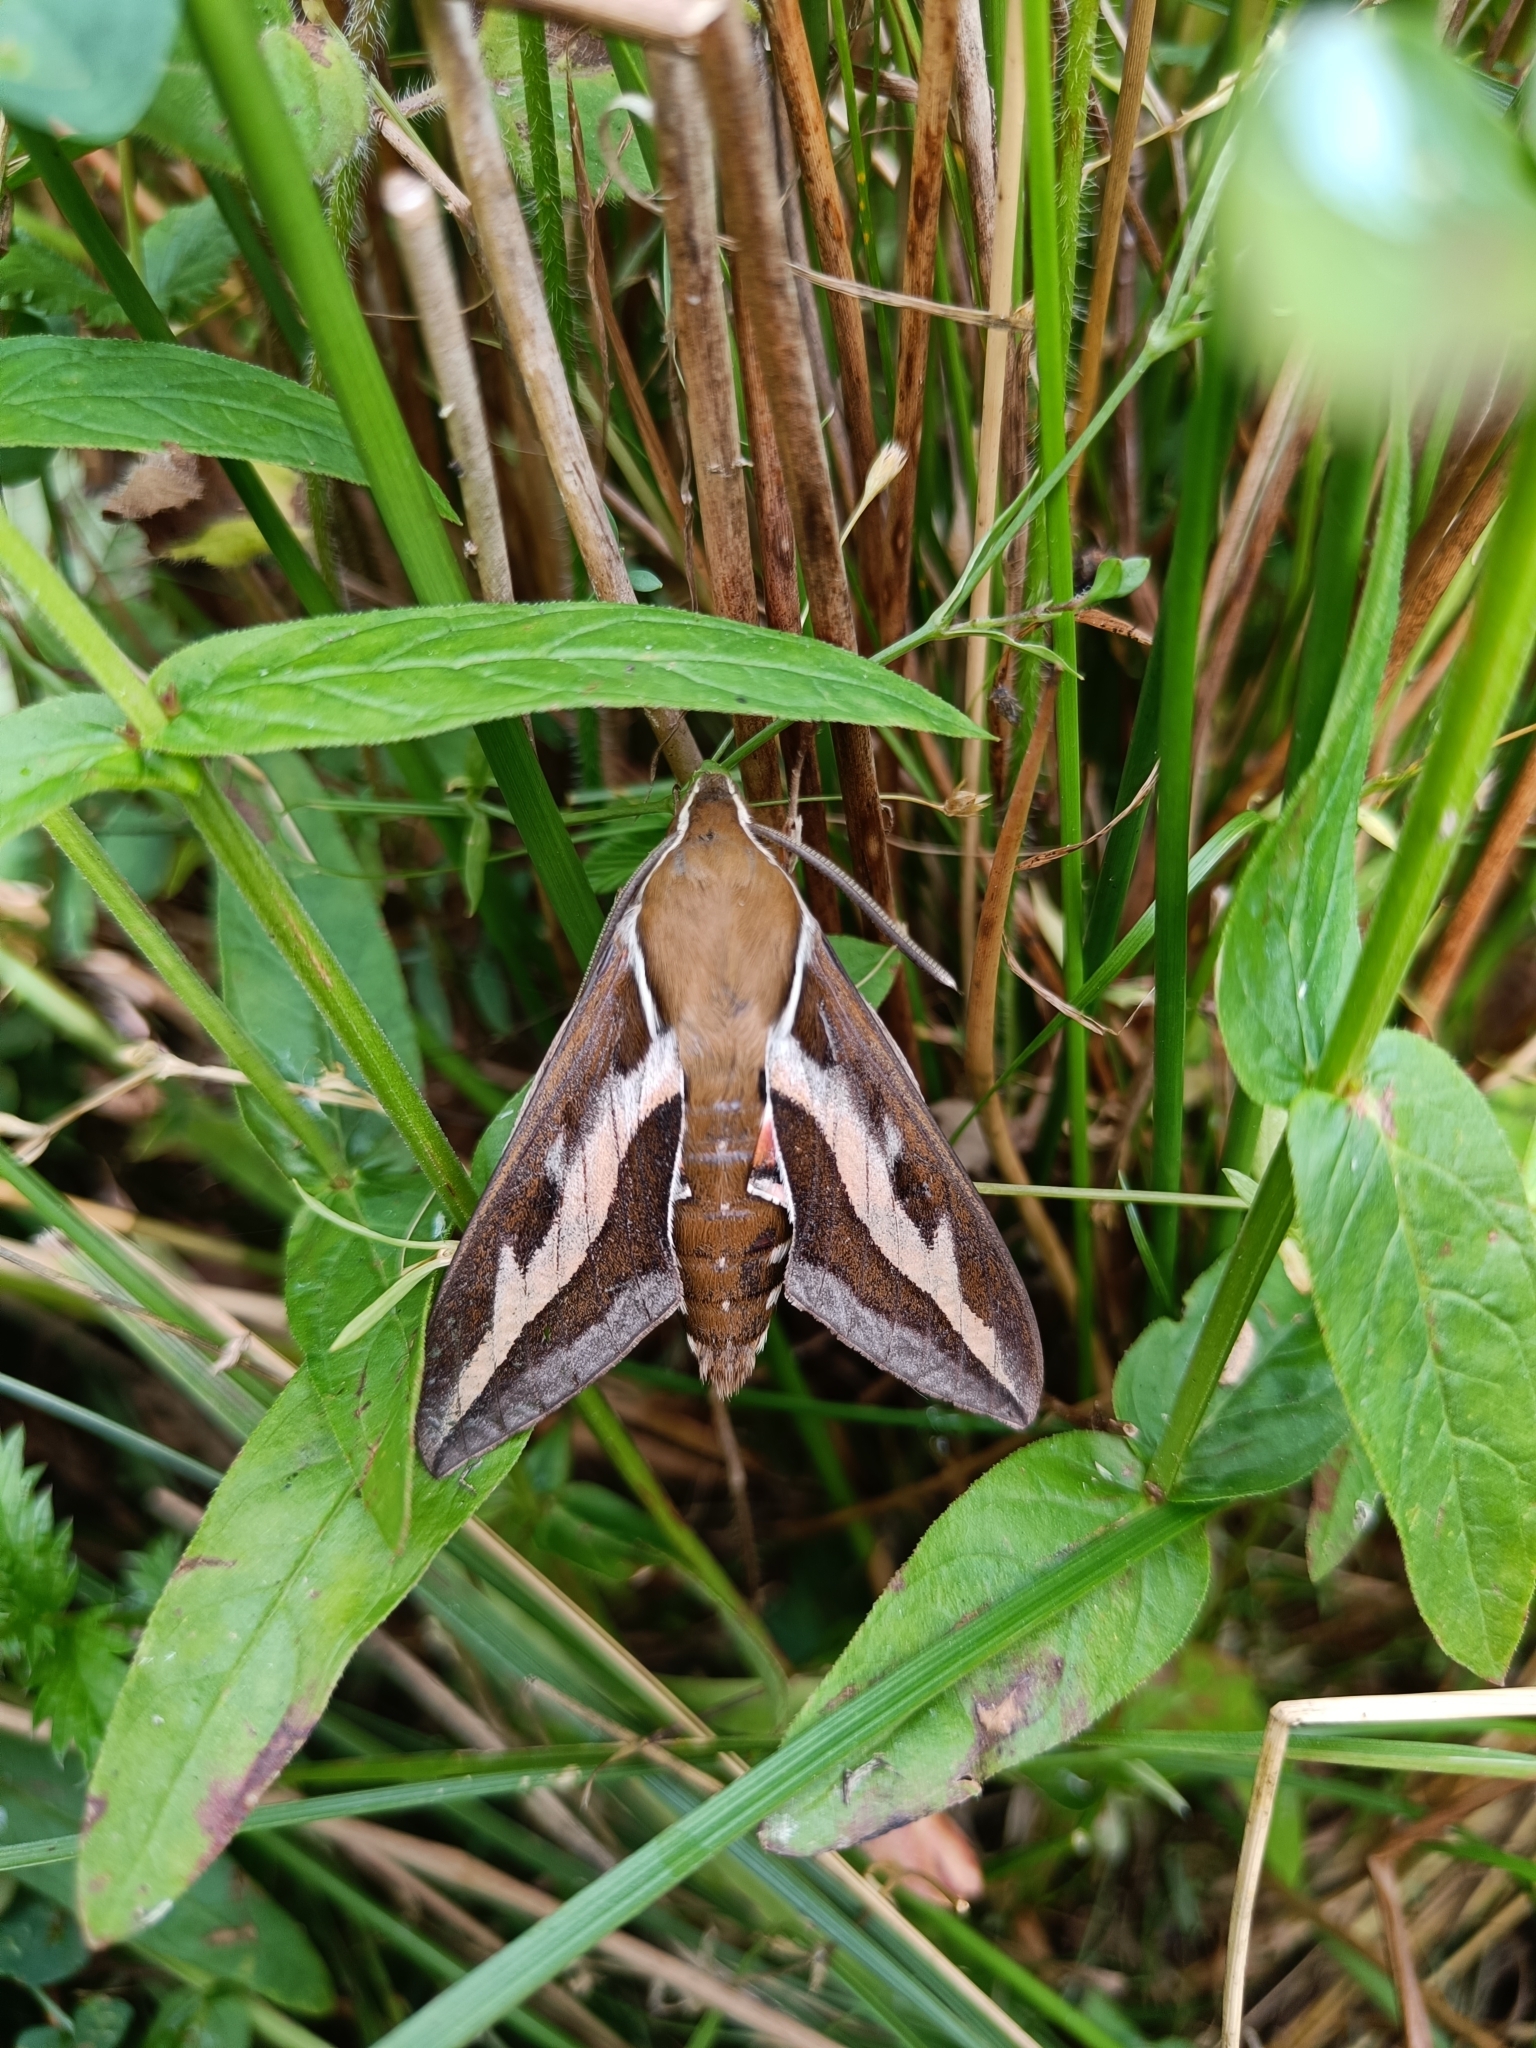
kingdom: Animalia
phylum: Arthropoda
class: Insecta
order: Lepidoptera
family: Sphingidae
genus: Hyles
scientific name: Hyles gallii
